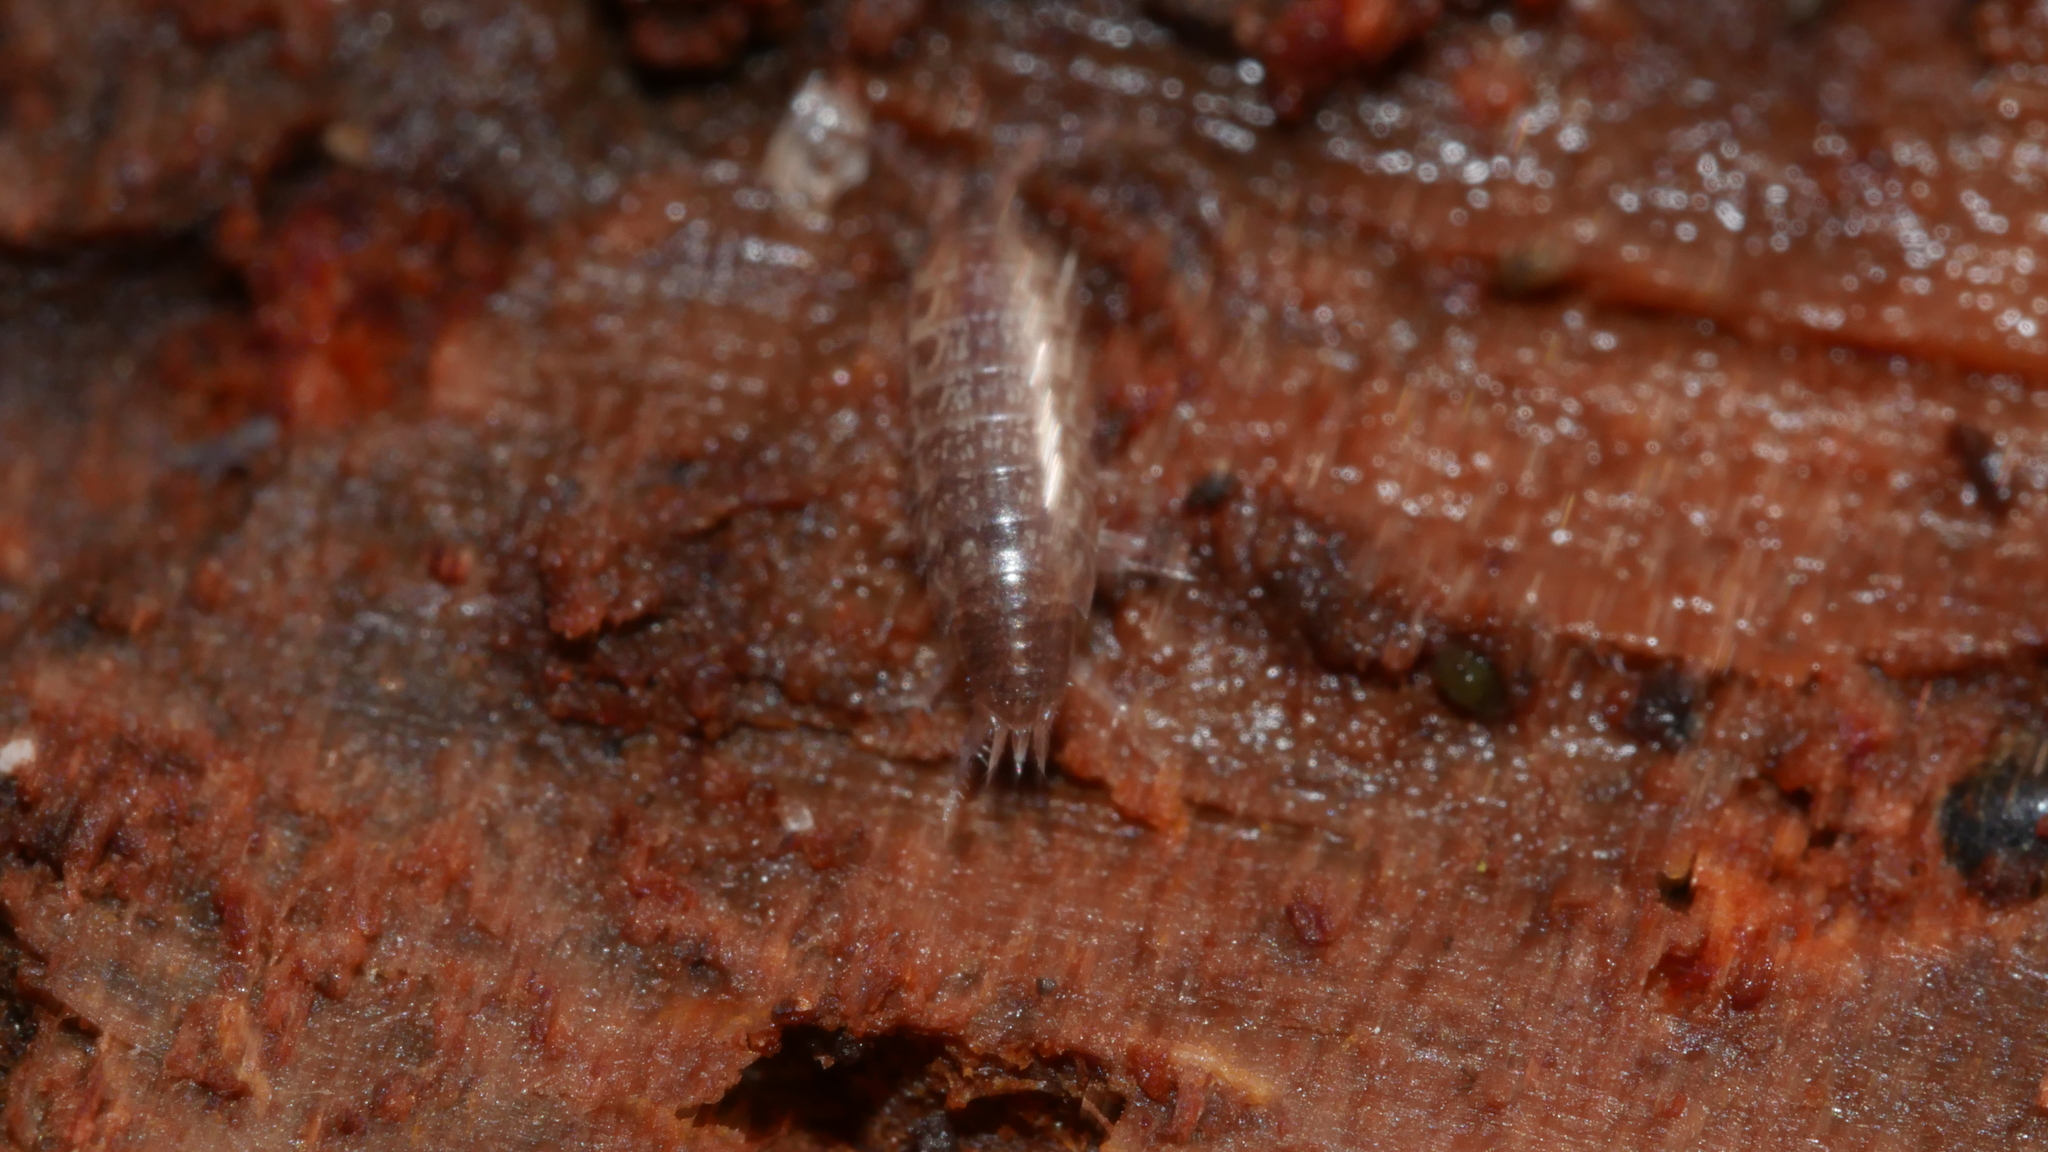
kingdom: Animalia
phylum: Arthropoda
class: Malacostraca
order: Isopoda
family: Philosciidae
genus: Chaetophiloscia
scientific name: Chaetophiloscia sicula
